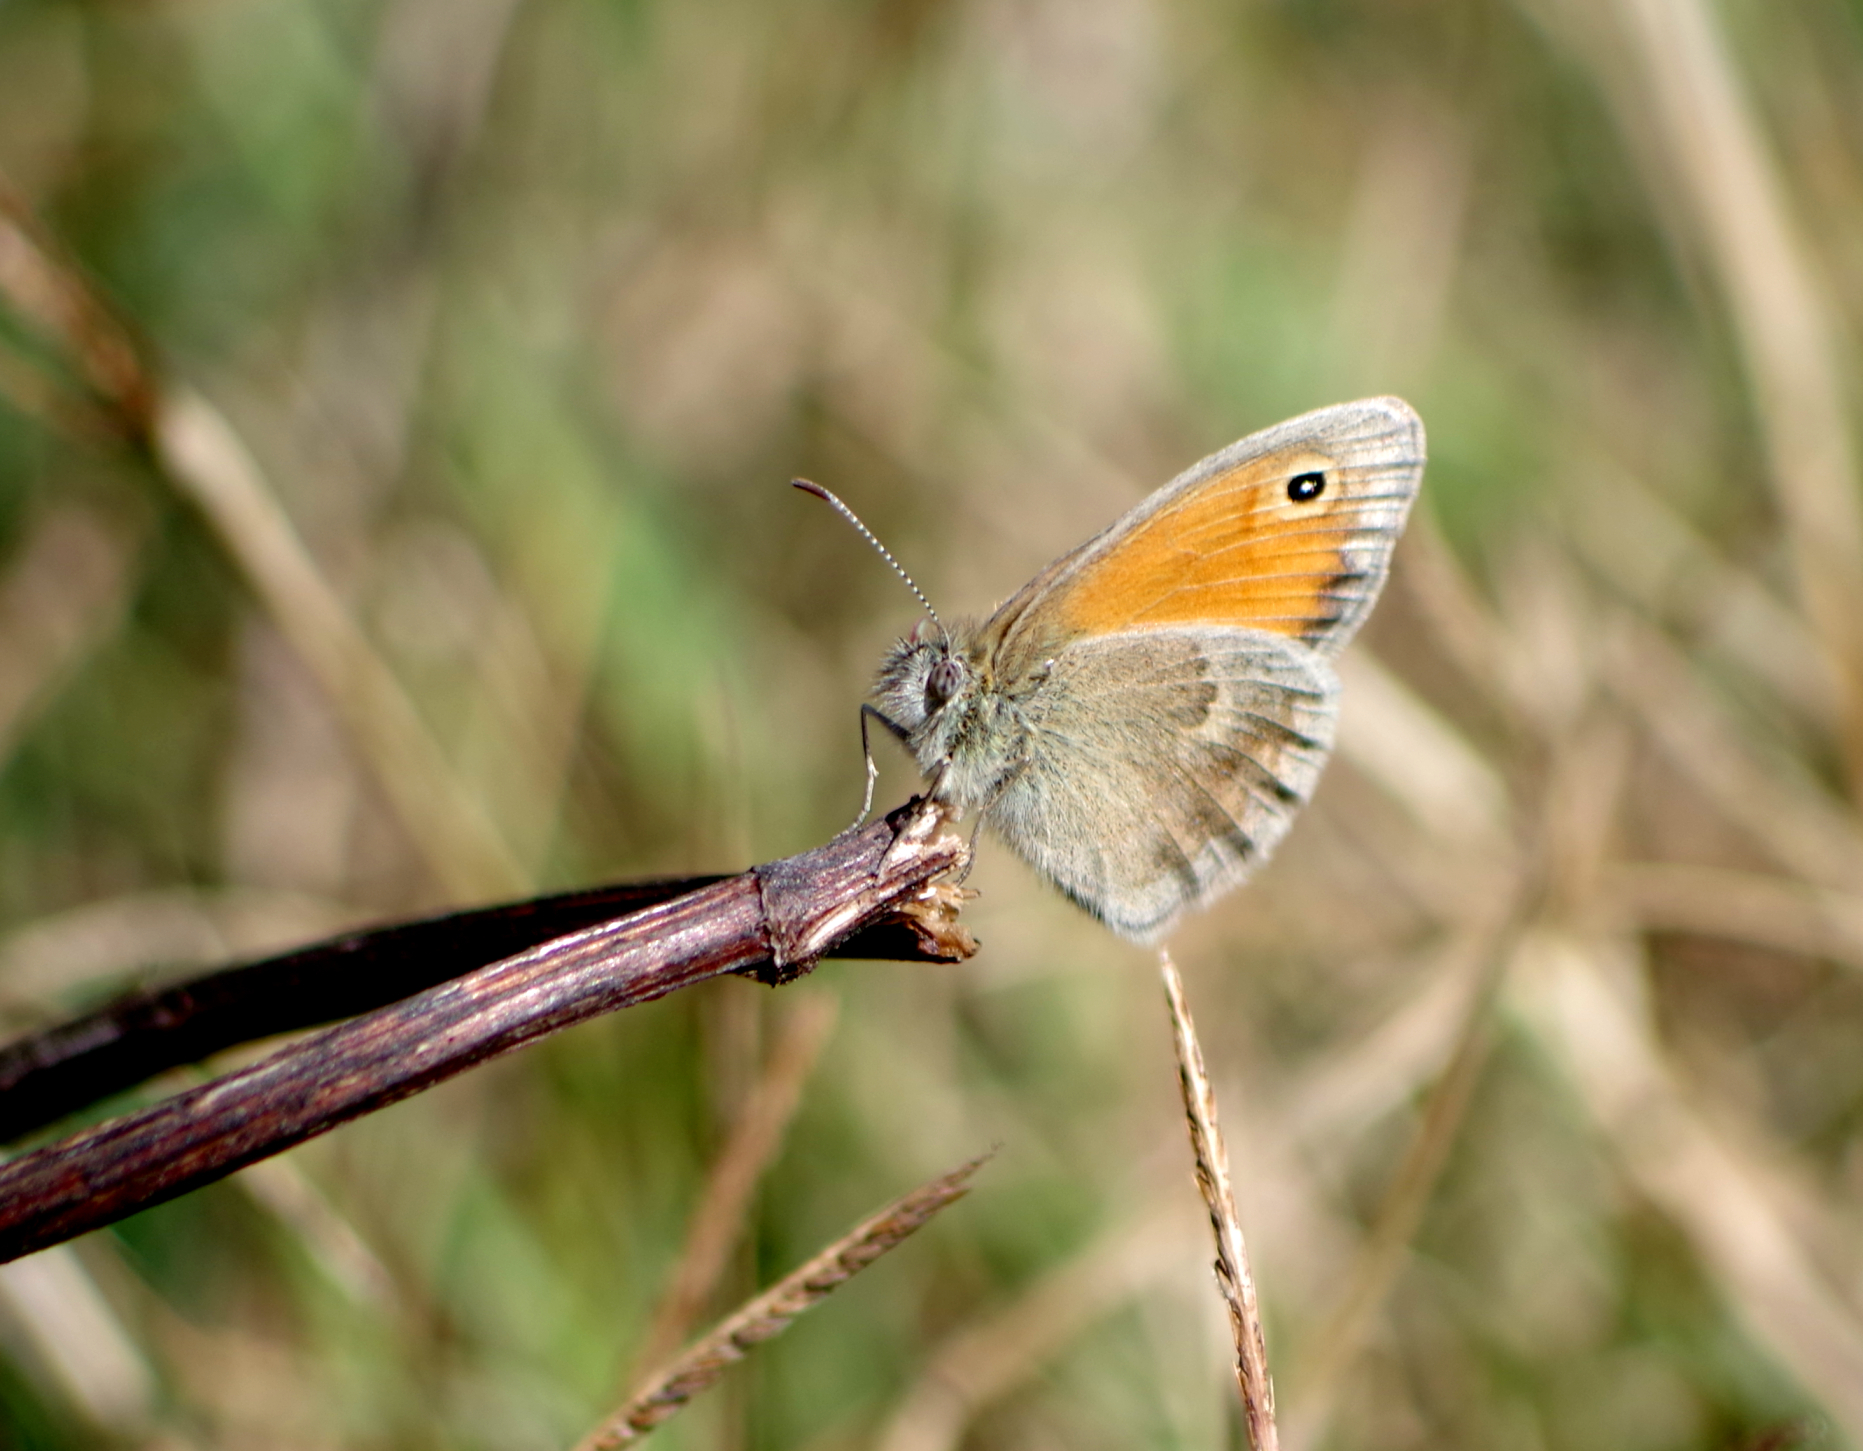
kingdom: Animalia
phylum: Arthropoda
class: Insecta
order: Lepidoptera
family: Nymphalidae
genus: Coenonympha
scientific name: Coenonympha pamphilus
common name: Small heath
